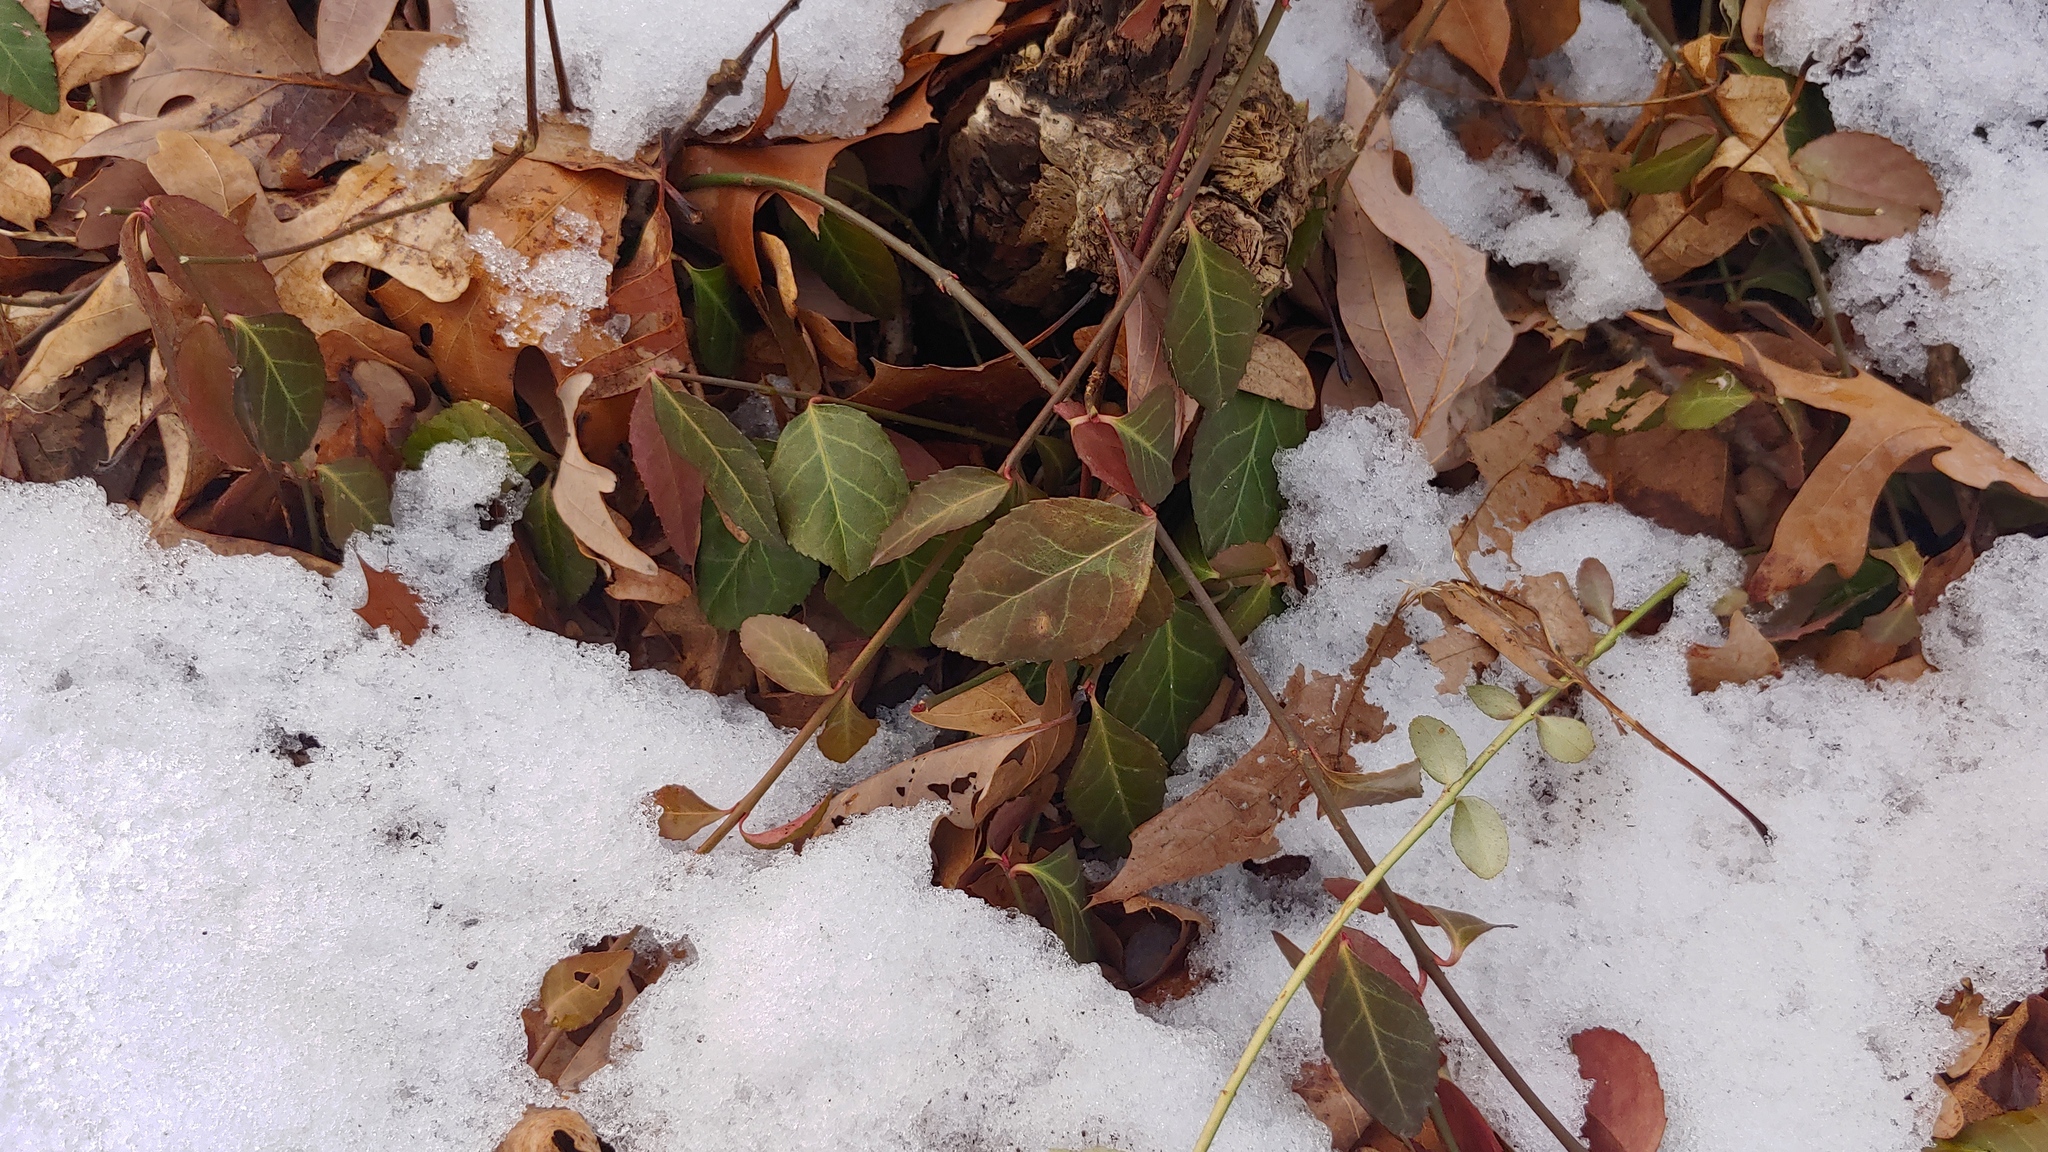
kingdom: Plantae
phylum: Tracheophyta
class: Magnoliopsida
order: Celastrales
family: Celastraceae
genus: Euonymus
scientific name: Euonymus fortunei
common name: Climbing euonymus
